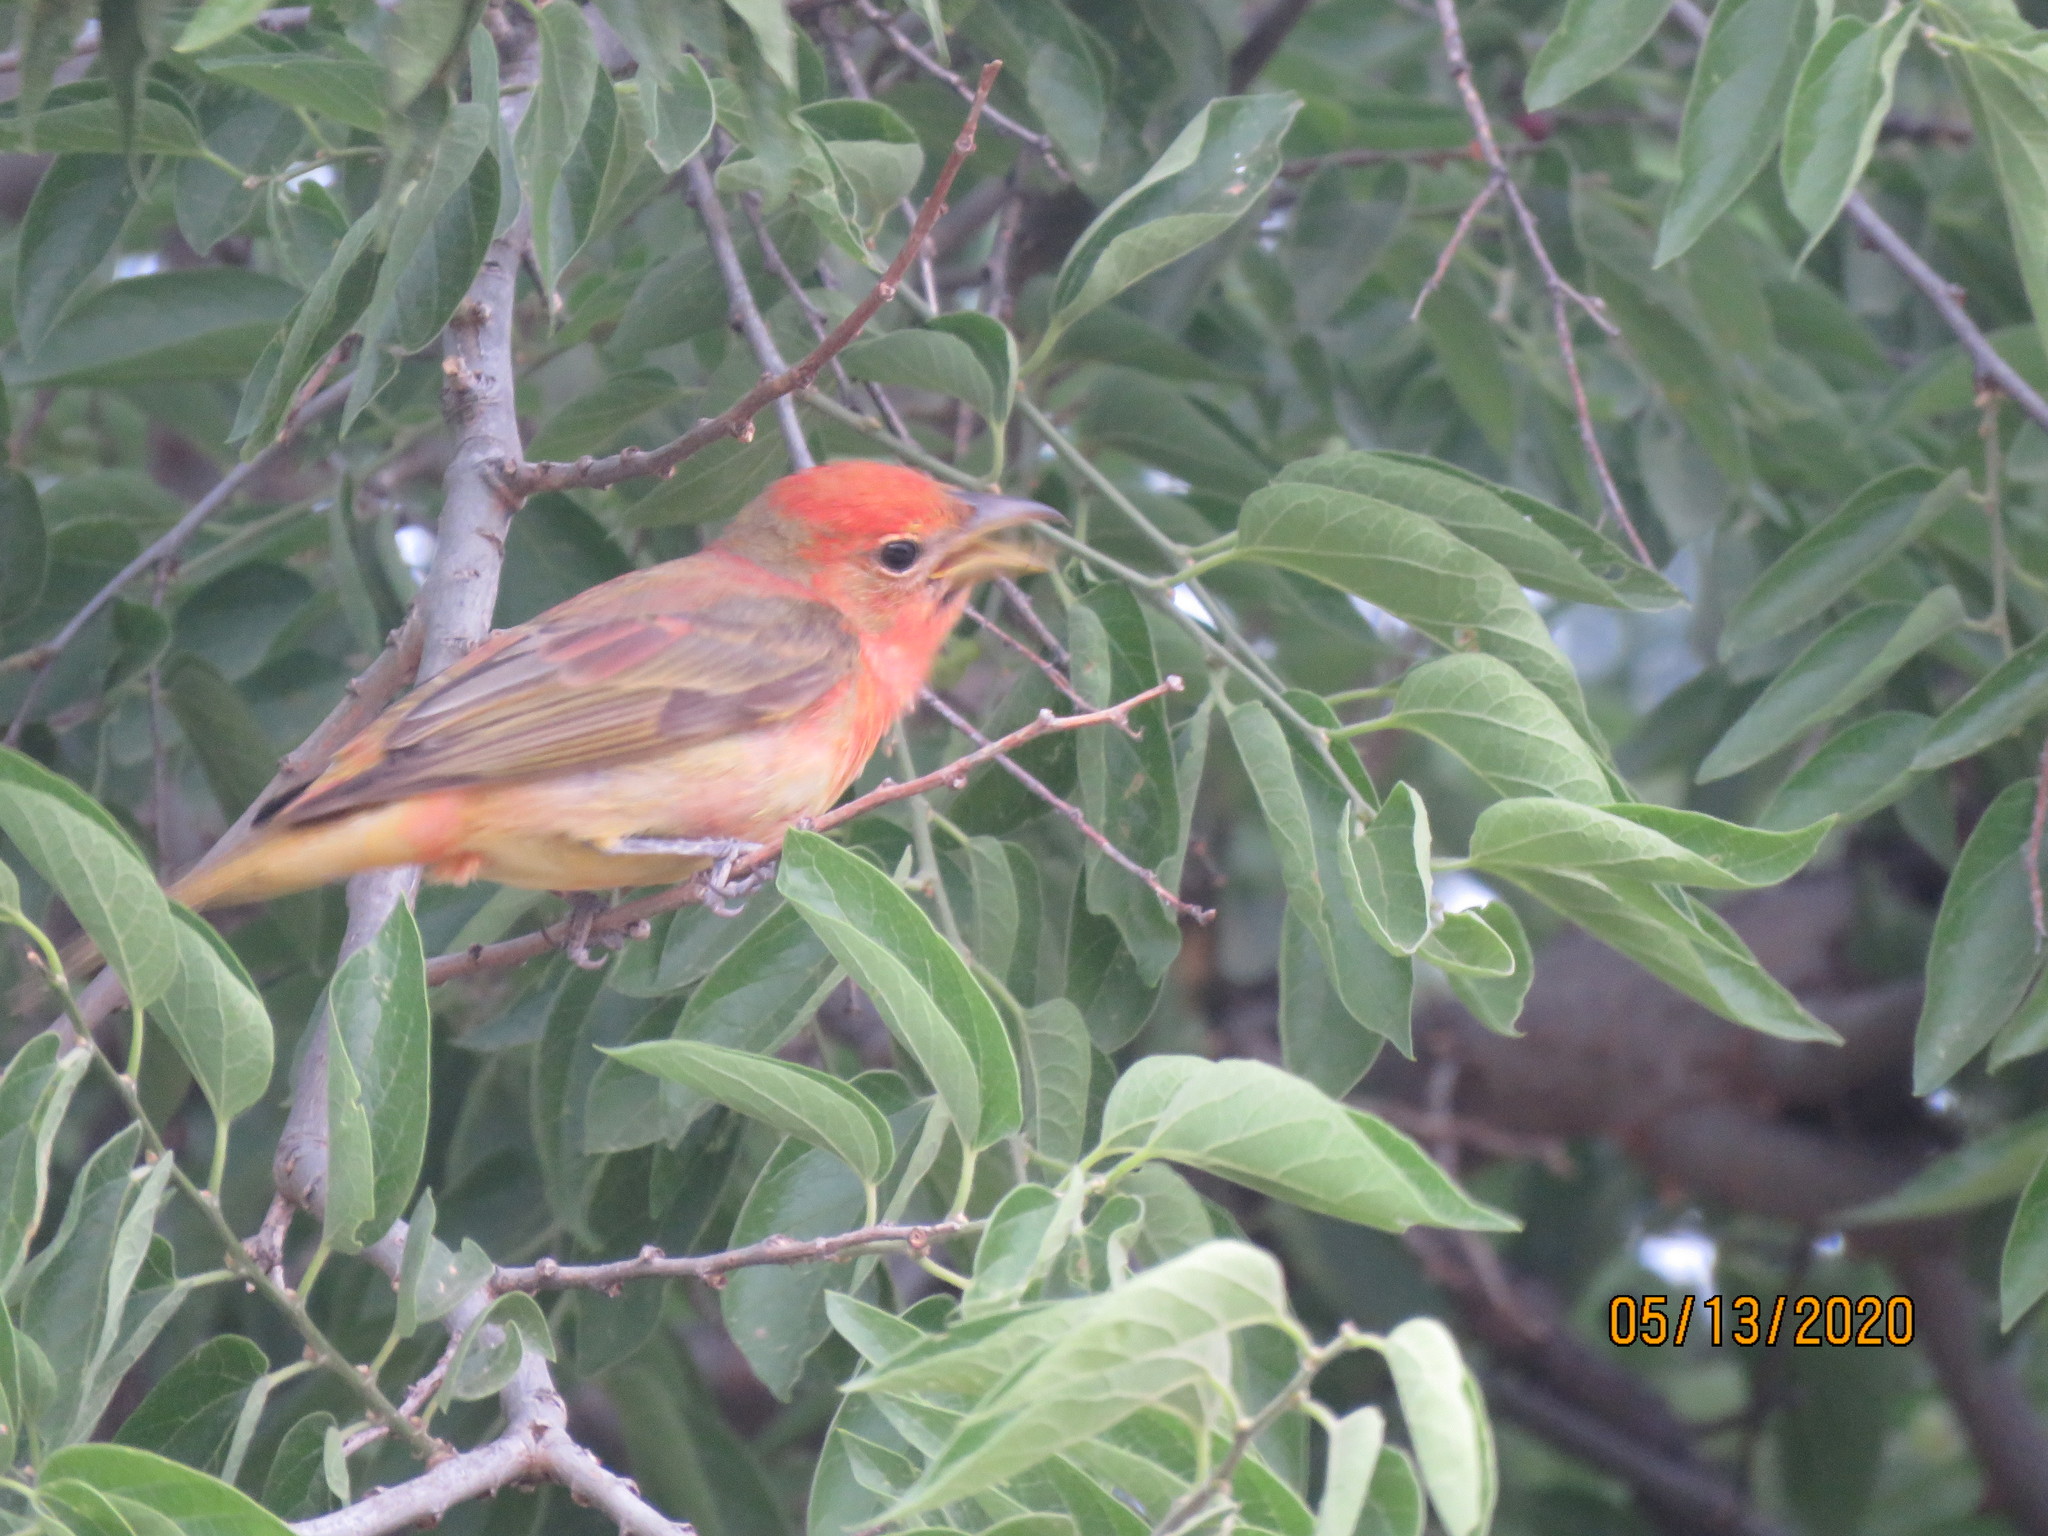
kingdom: Animalia
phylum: Chordata
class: Aves
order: Passeriformes
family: Cardinalidae
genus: Piranga
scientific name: Piranga rubra
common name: Summer tanager
